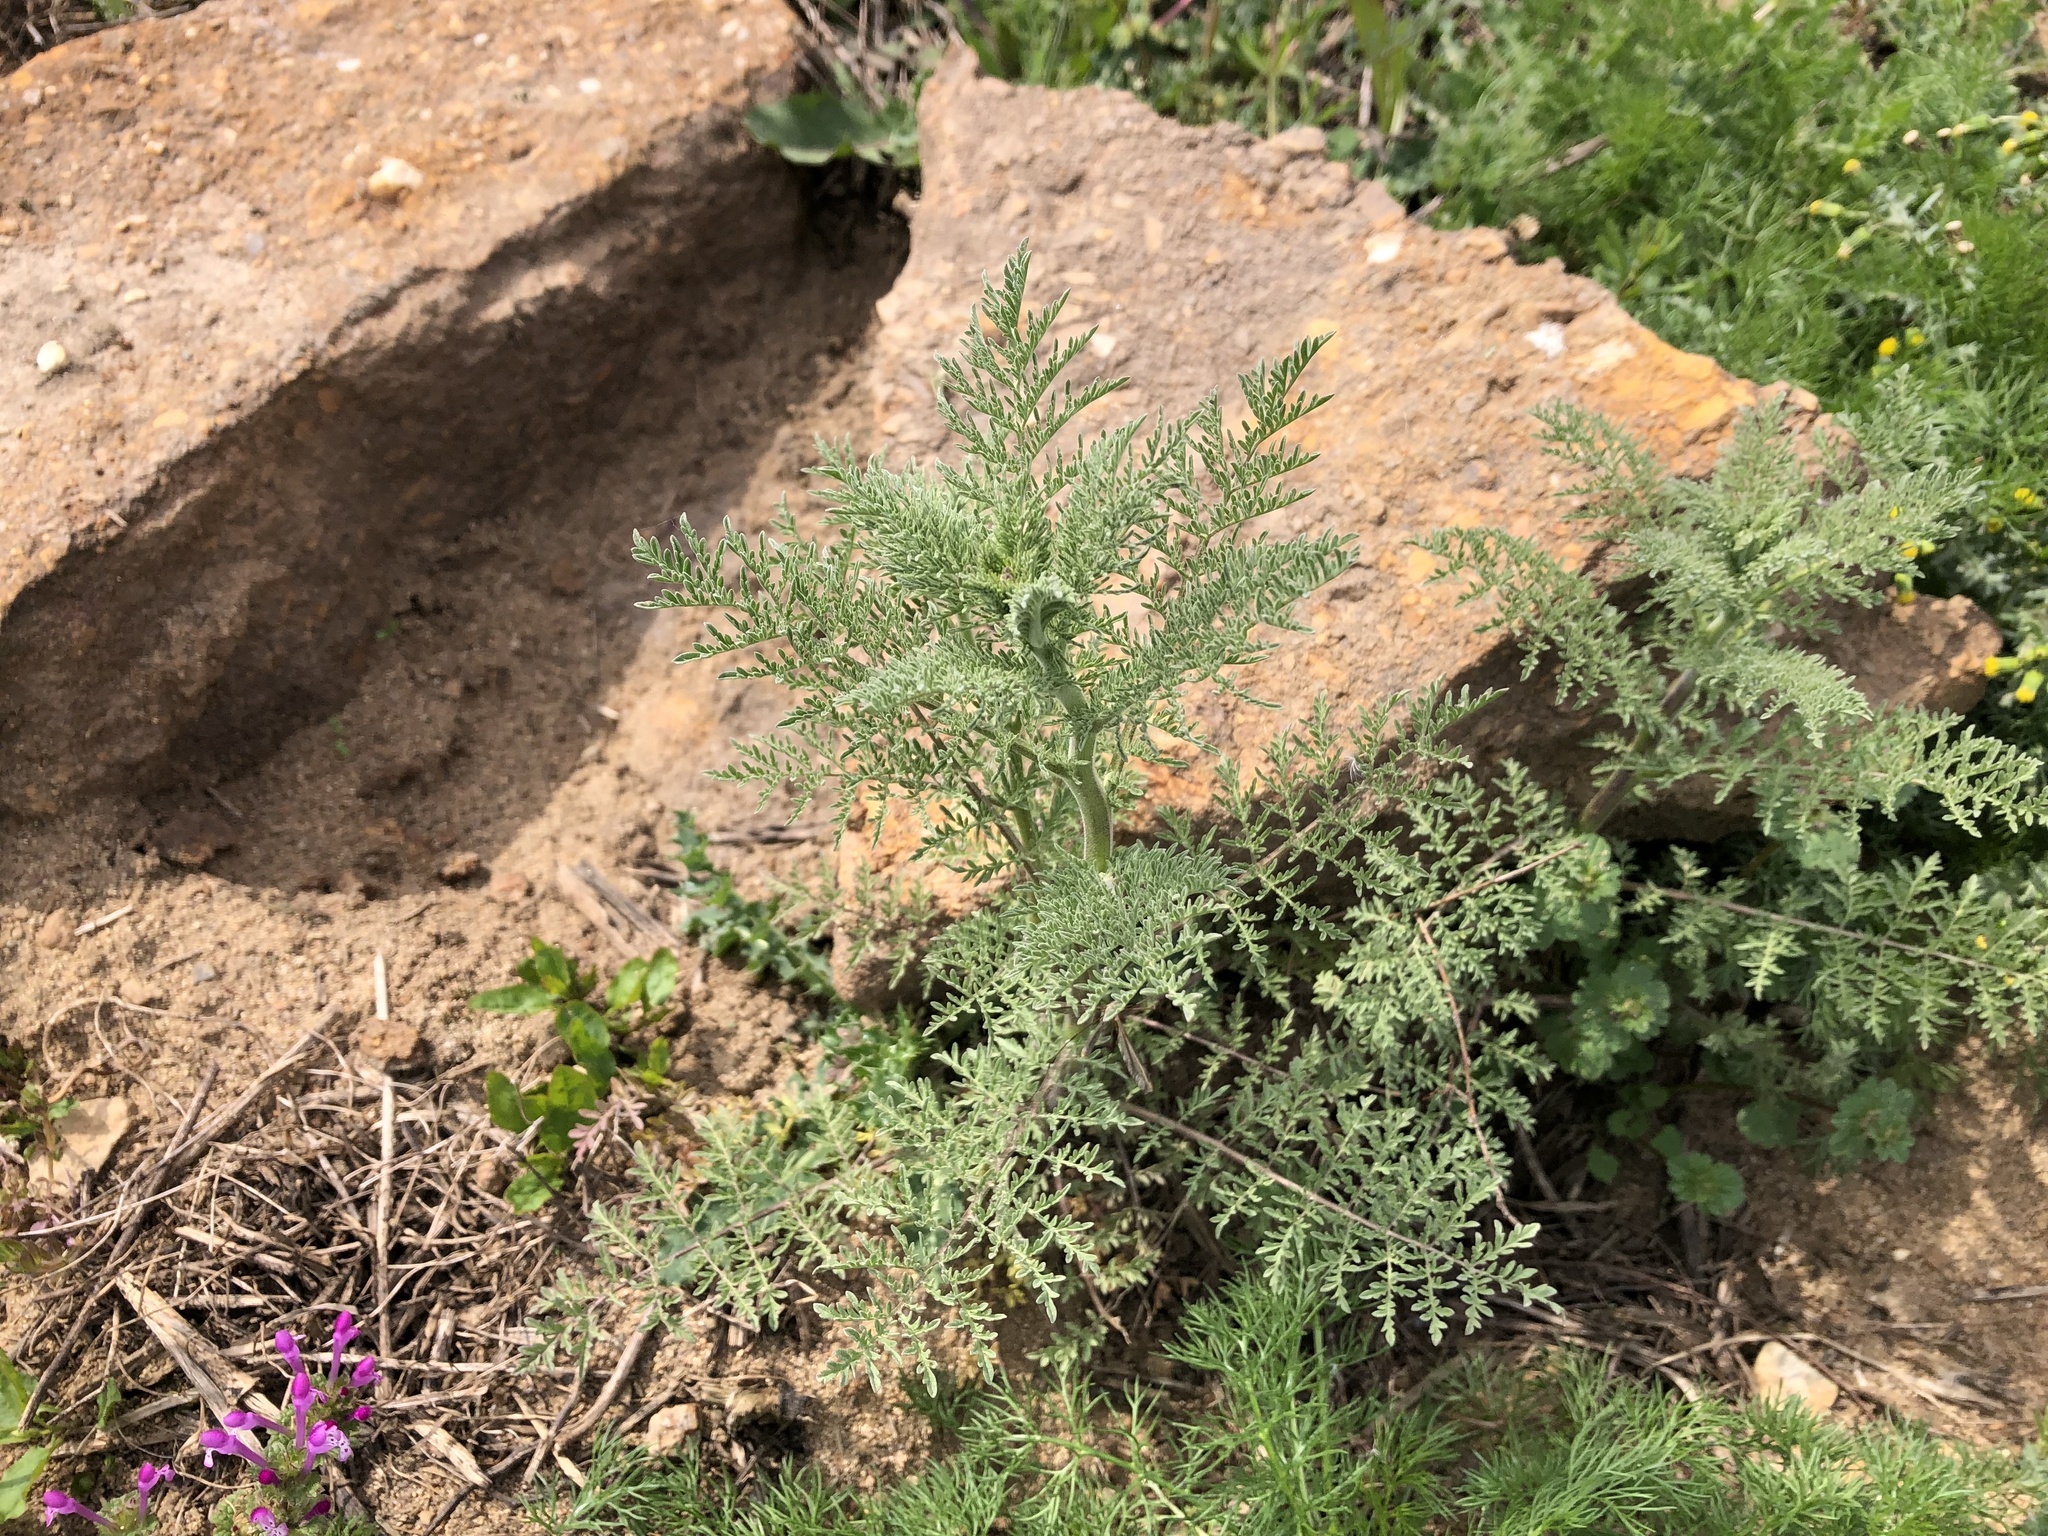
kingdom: Plantae
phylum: Tracheophyta
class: Magnoliopsida
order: Brassicales
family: Brassicaceae
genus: Descurainia
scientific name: Descurainia sophia
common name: Flixweed
